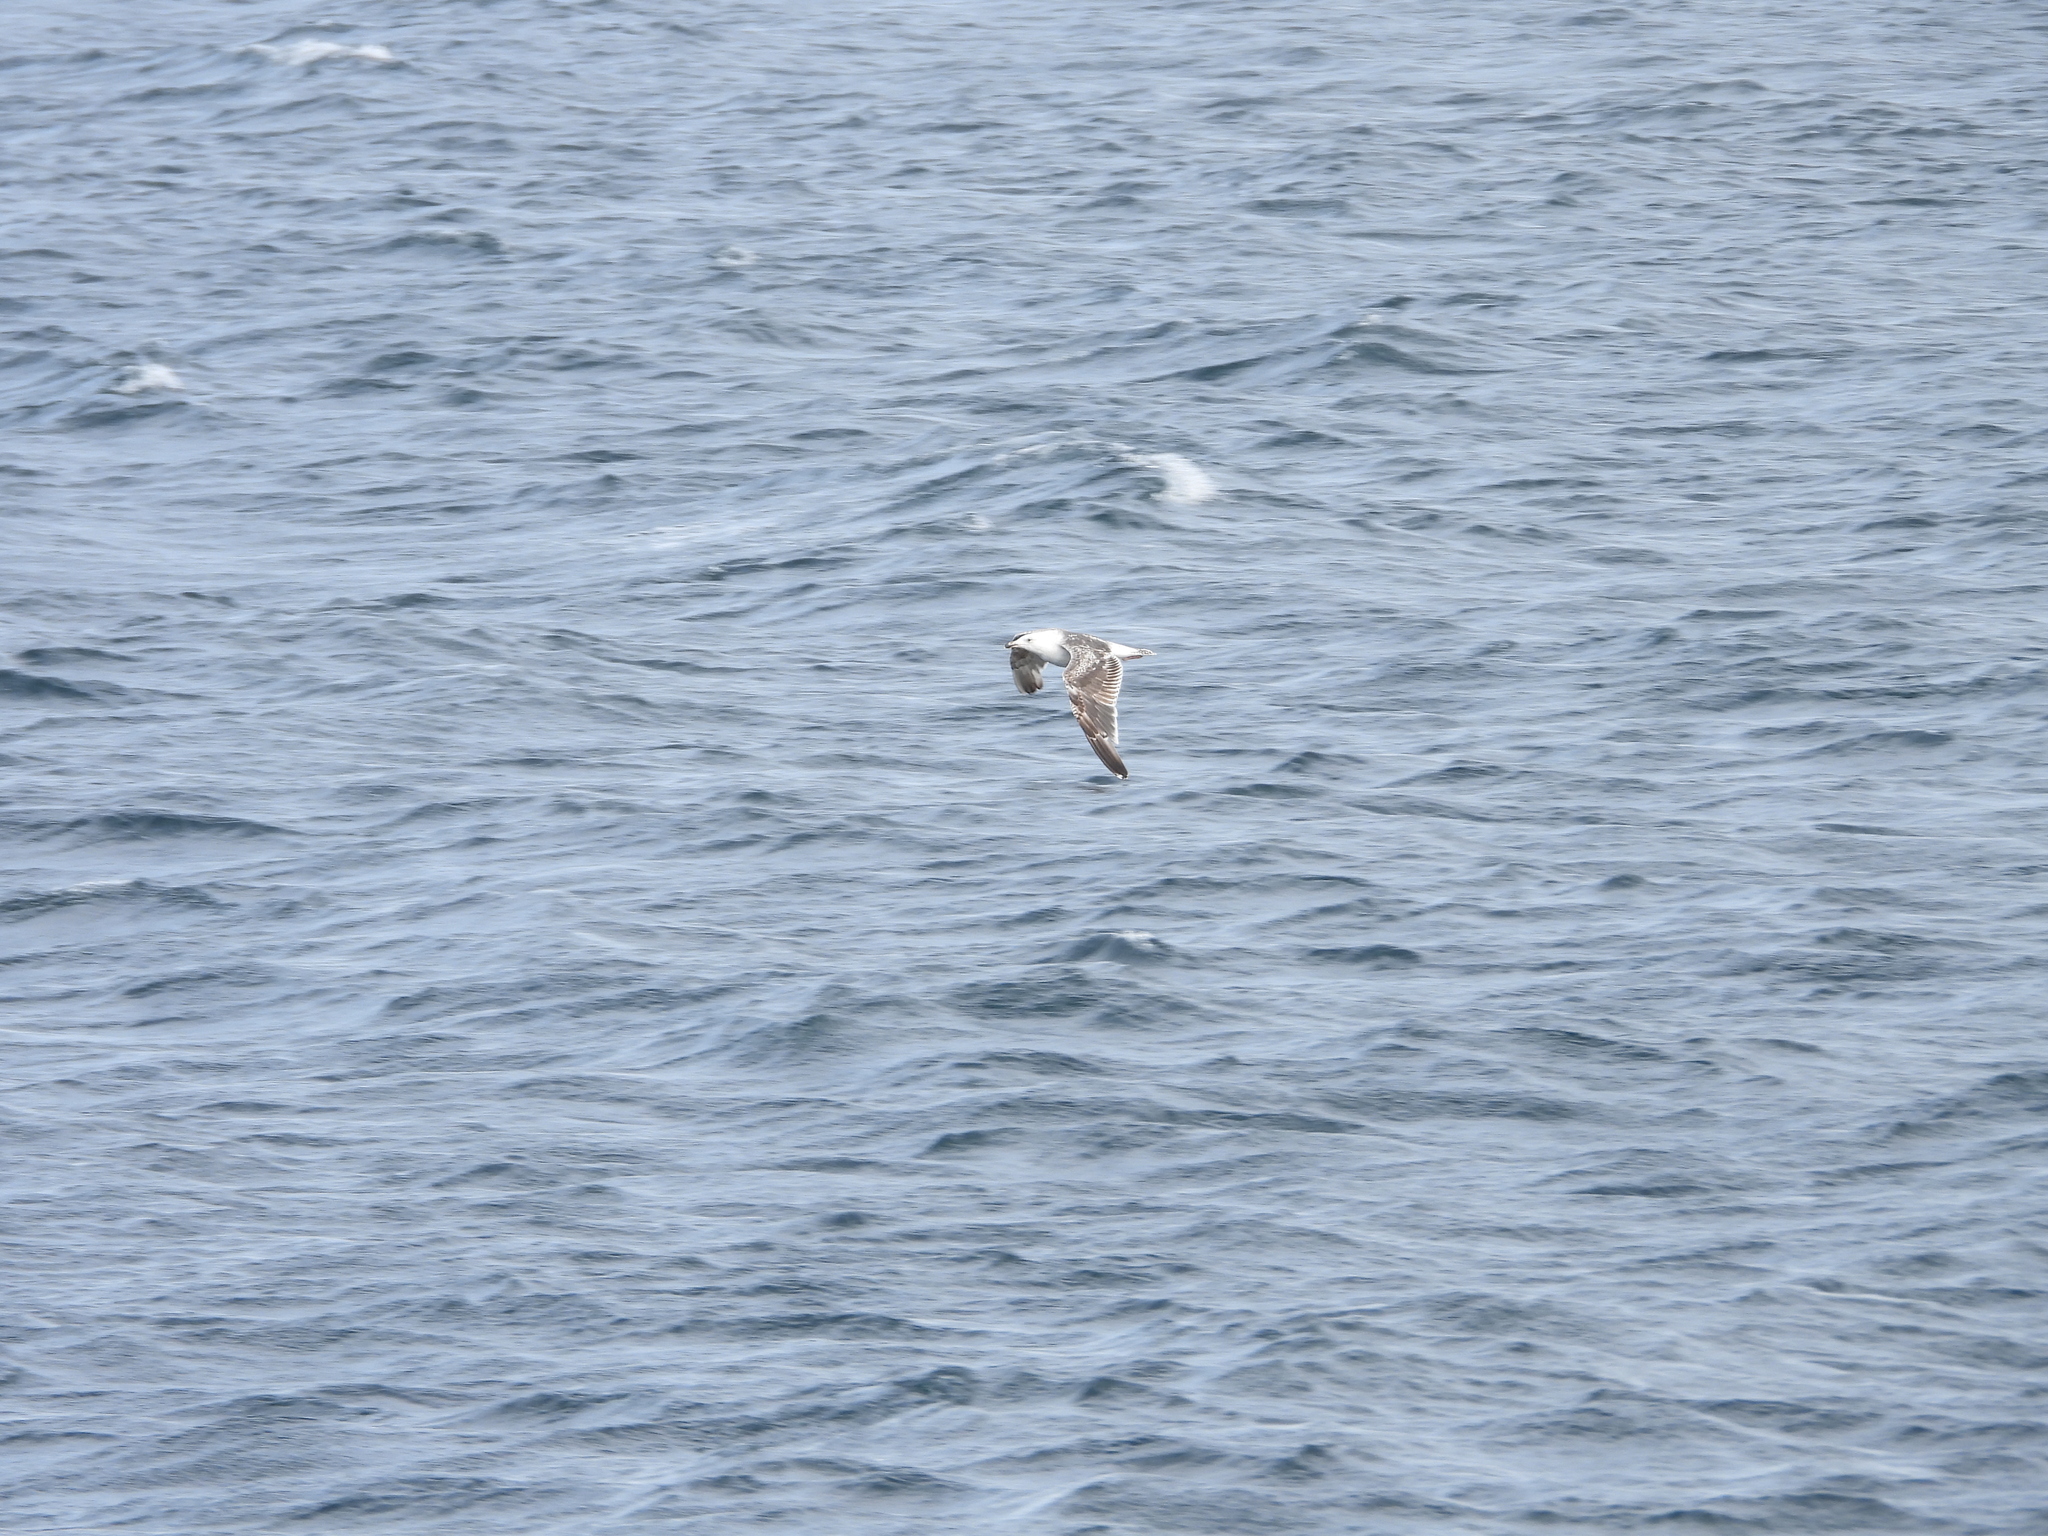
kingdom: Animalia
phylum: Chordata
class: Aves
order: Charadriiformes
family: Laridae
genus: Larus
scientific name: Larus marinus
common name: Great black-backed gull
